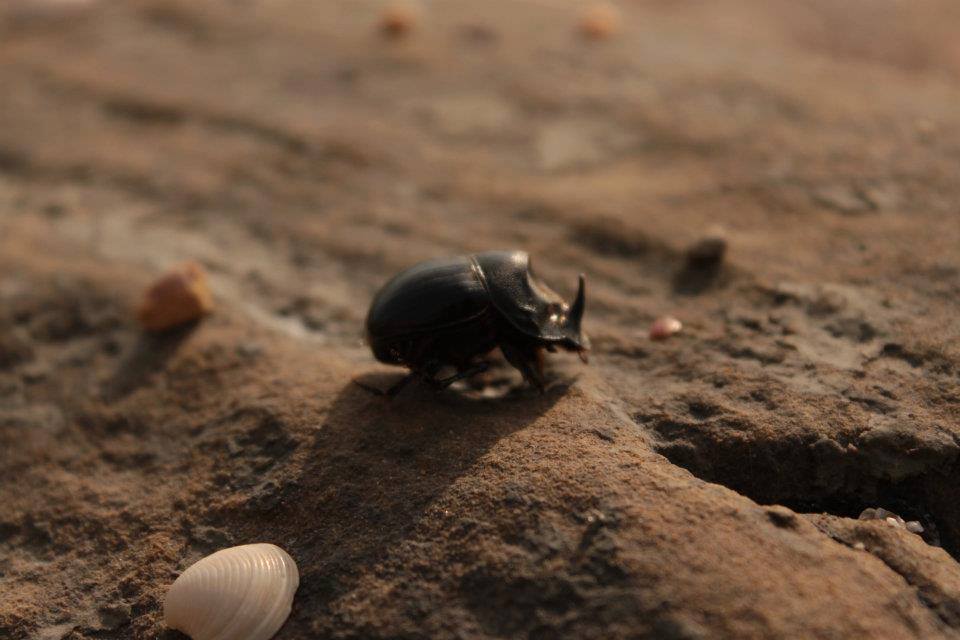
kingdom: Animalia
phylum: Arthropoda
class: Insecta
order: Coleoptera
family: Scarabaeidae
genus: Copris
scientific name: Copris hispanus
